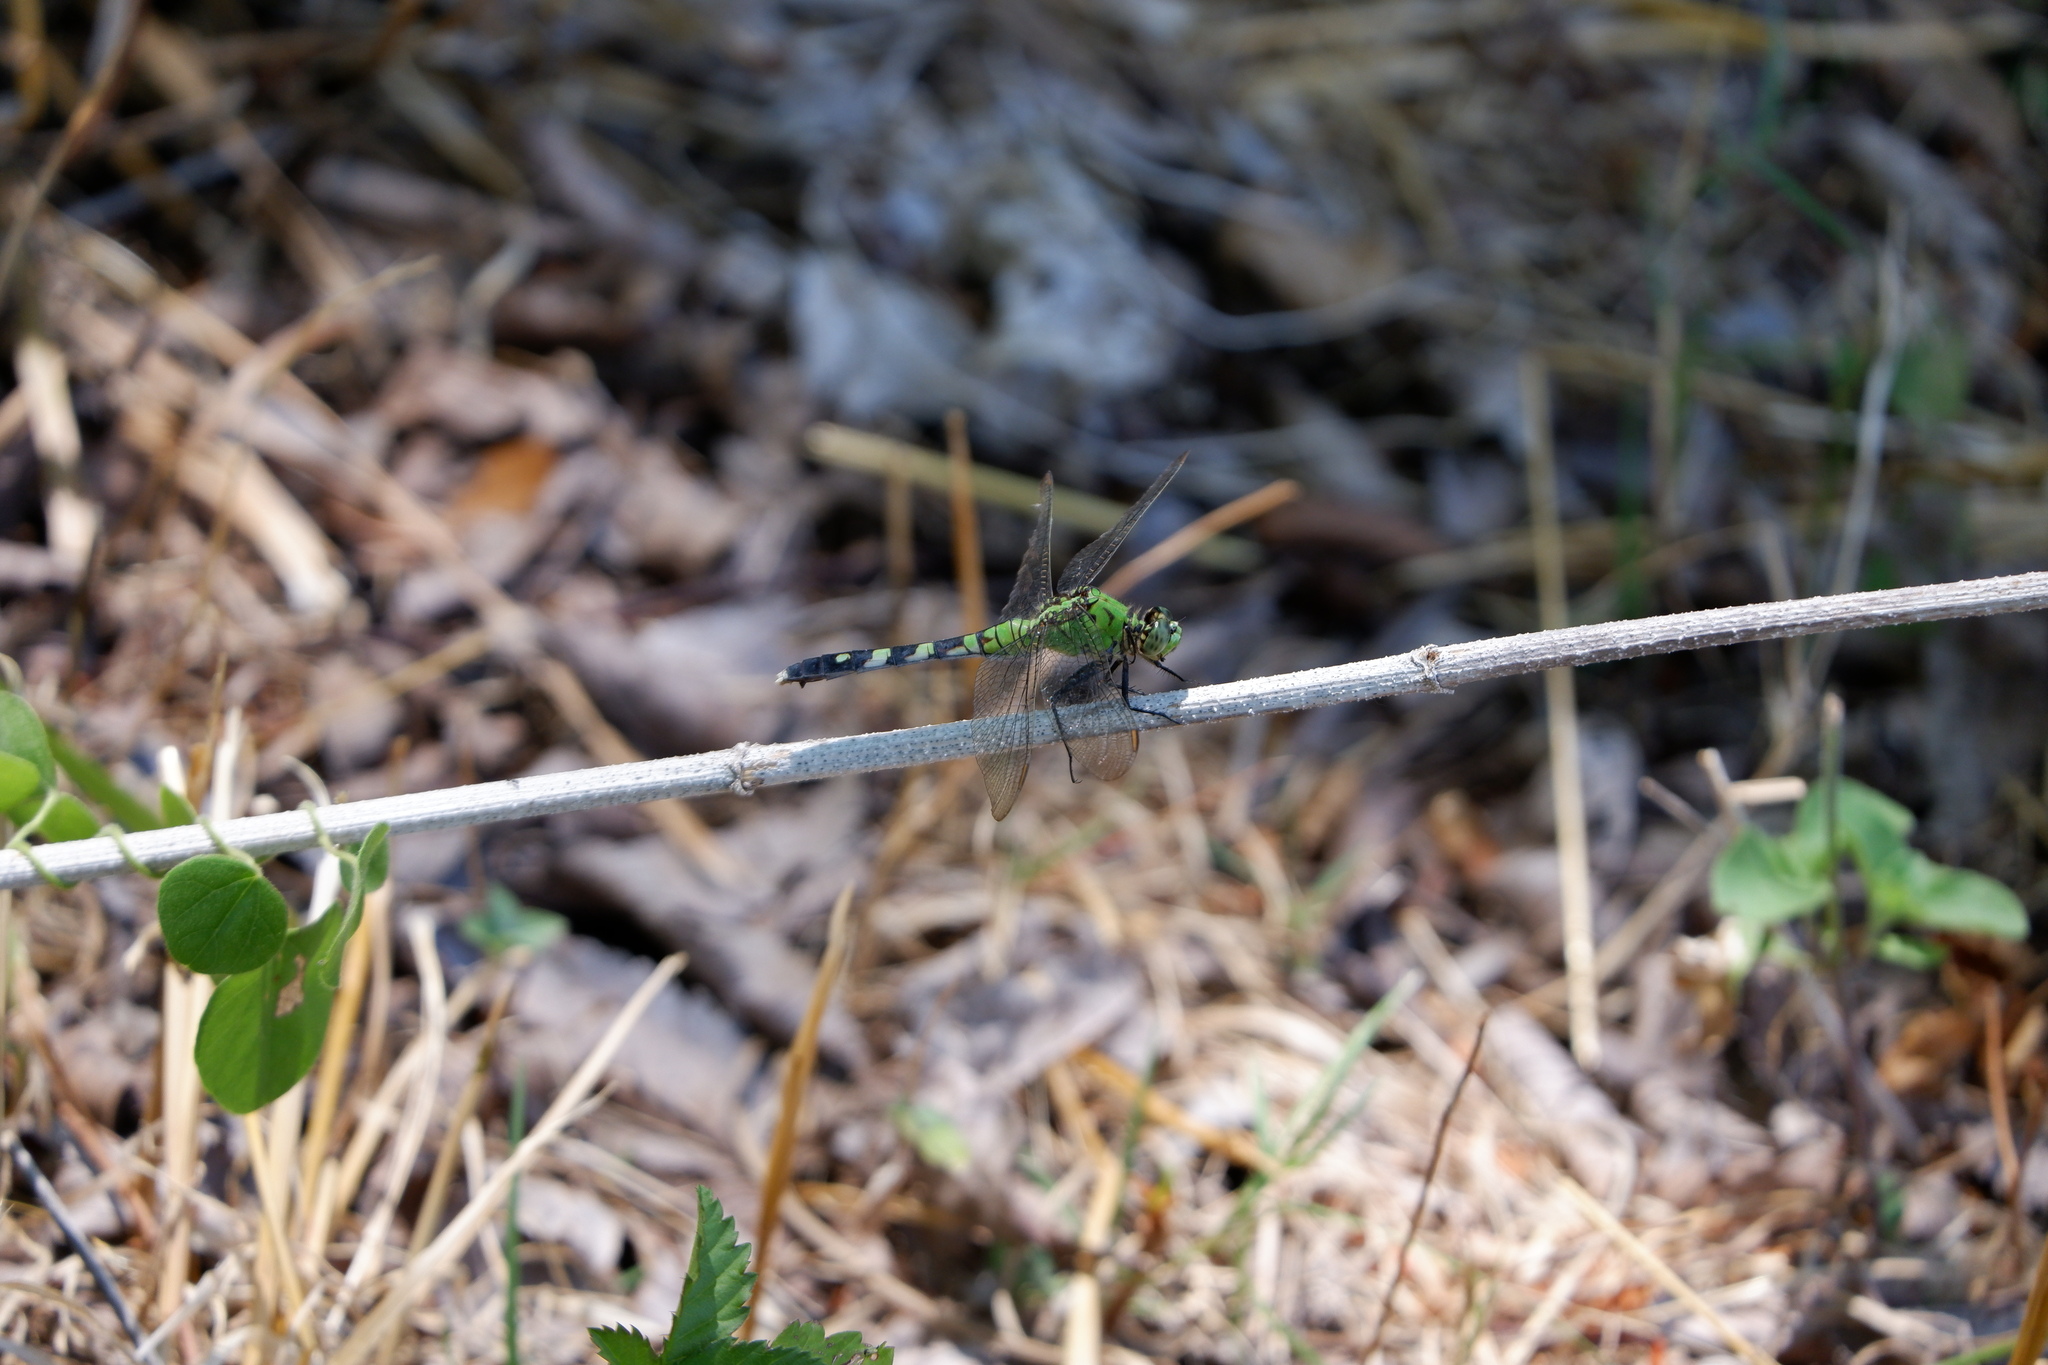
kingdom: Animalia
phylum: Arthropoda
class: Insecta
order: Odonata
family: Libellulidae
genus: Erythemis
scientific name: Erythemis simplicicollis
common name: Eastern pondhawk
